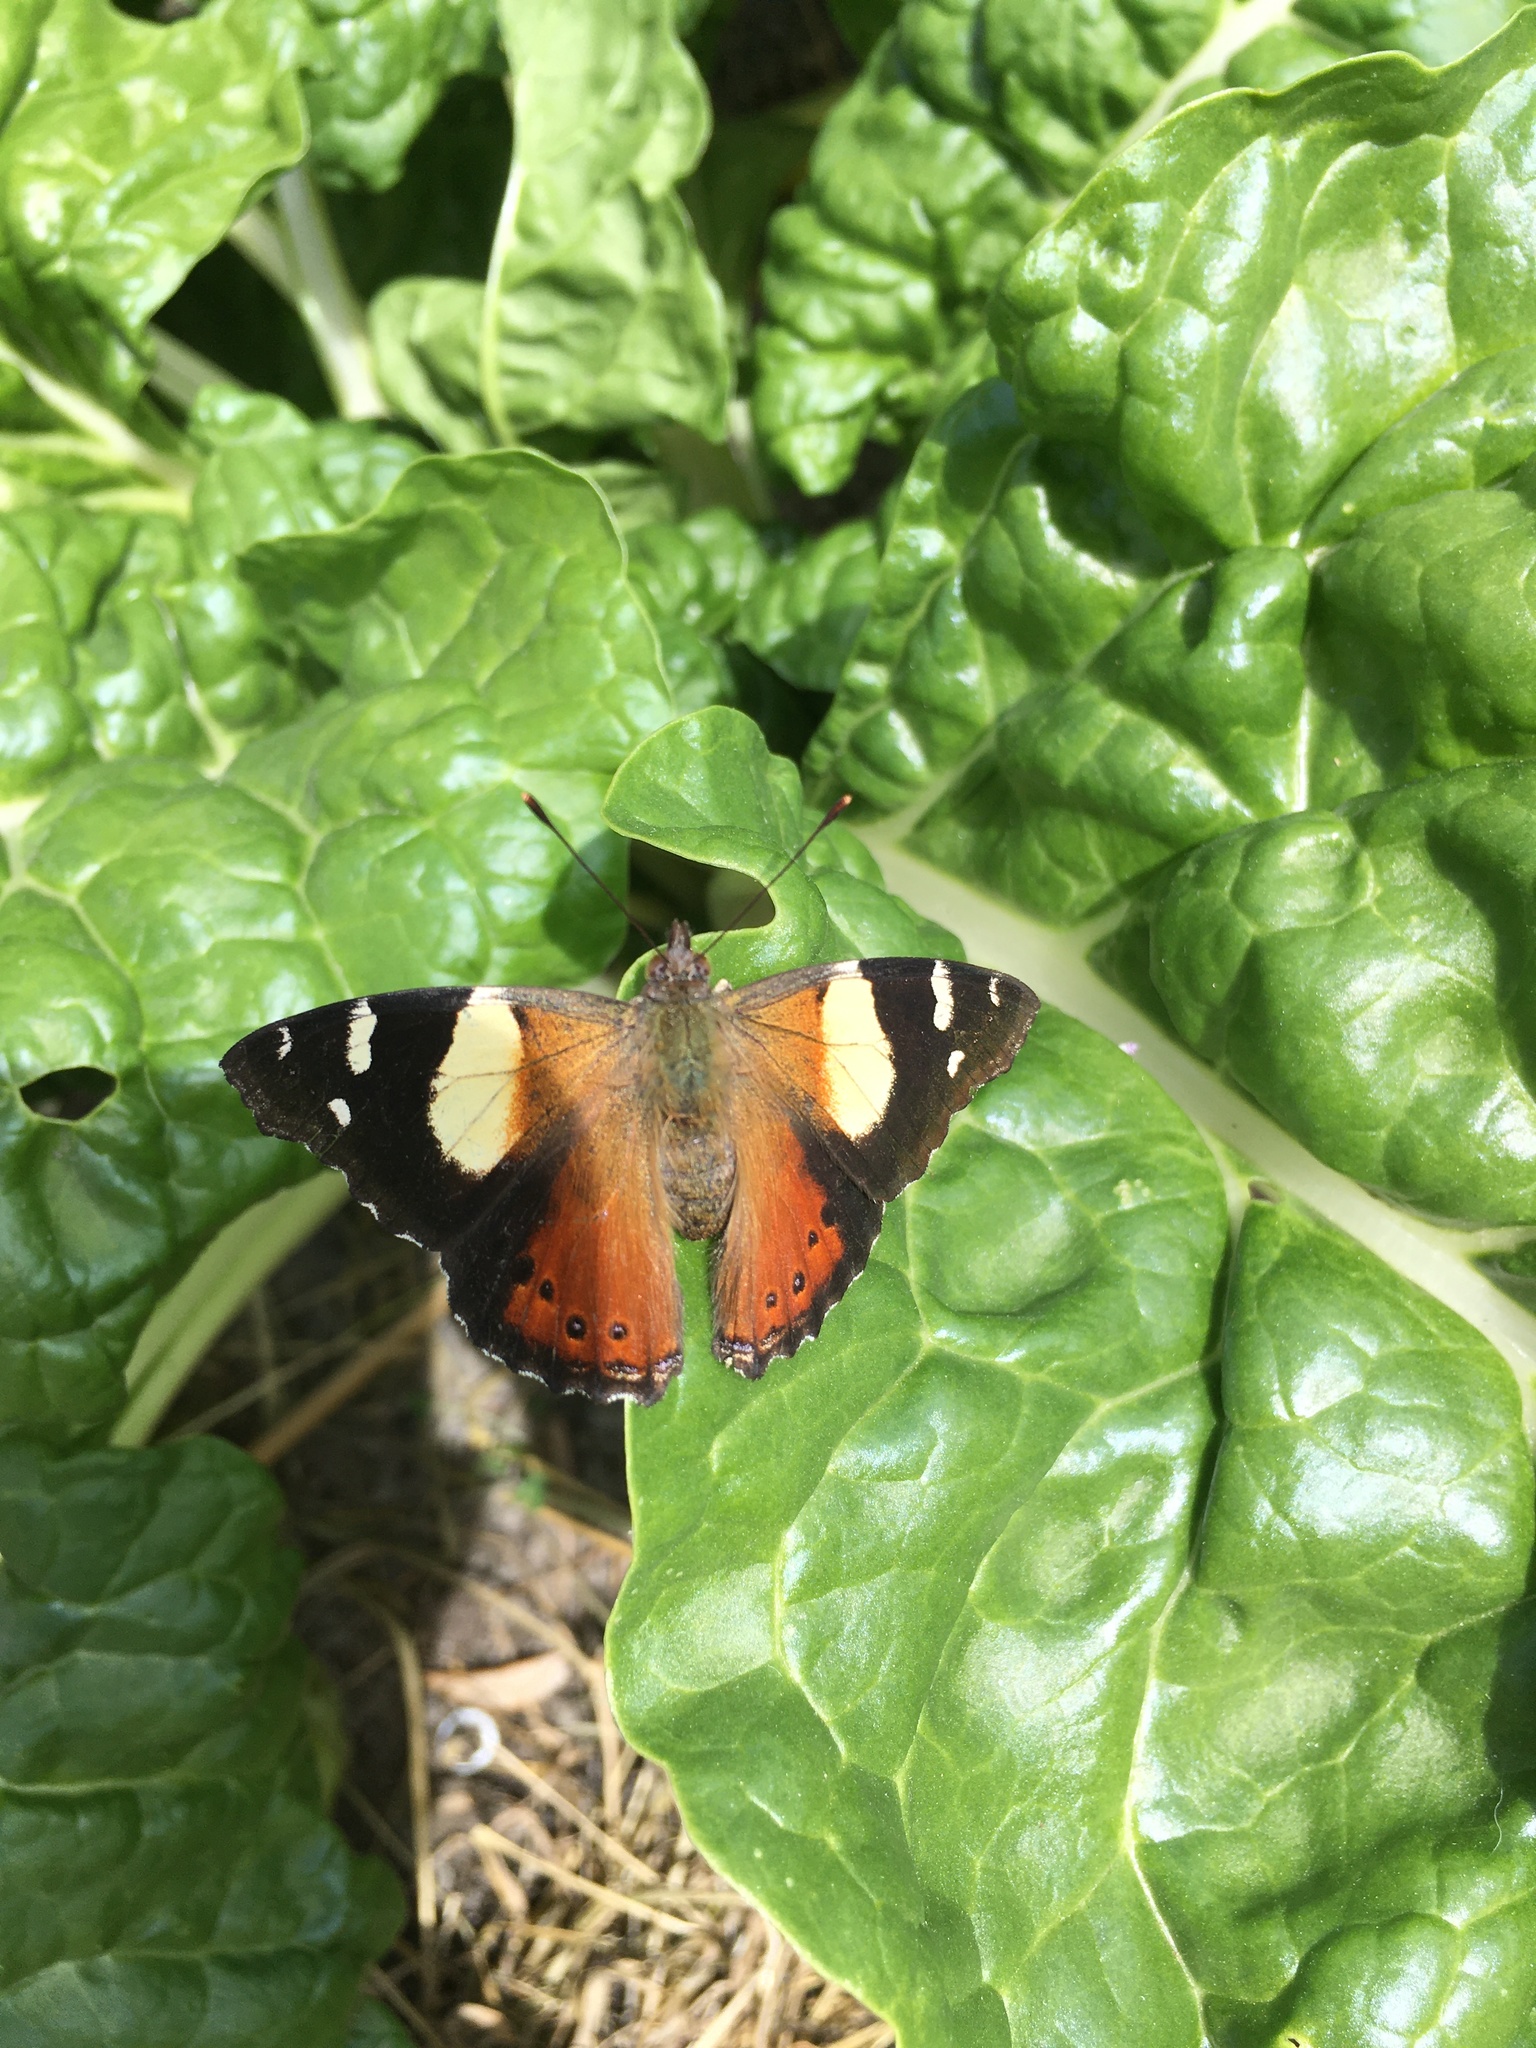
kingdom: Animalia
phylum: Arthropoda
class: Insecta
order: Lepidoptera
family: Nymphalidae
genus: Vanessa
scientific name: Vanessa itea
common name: Yellow admiral
